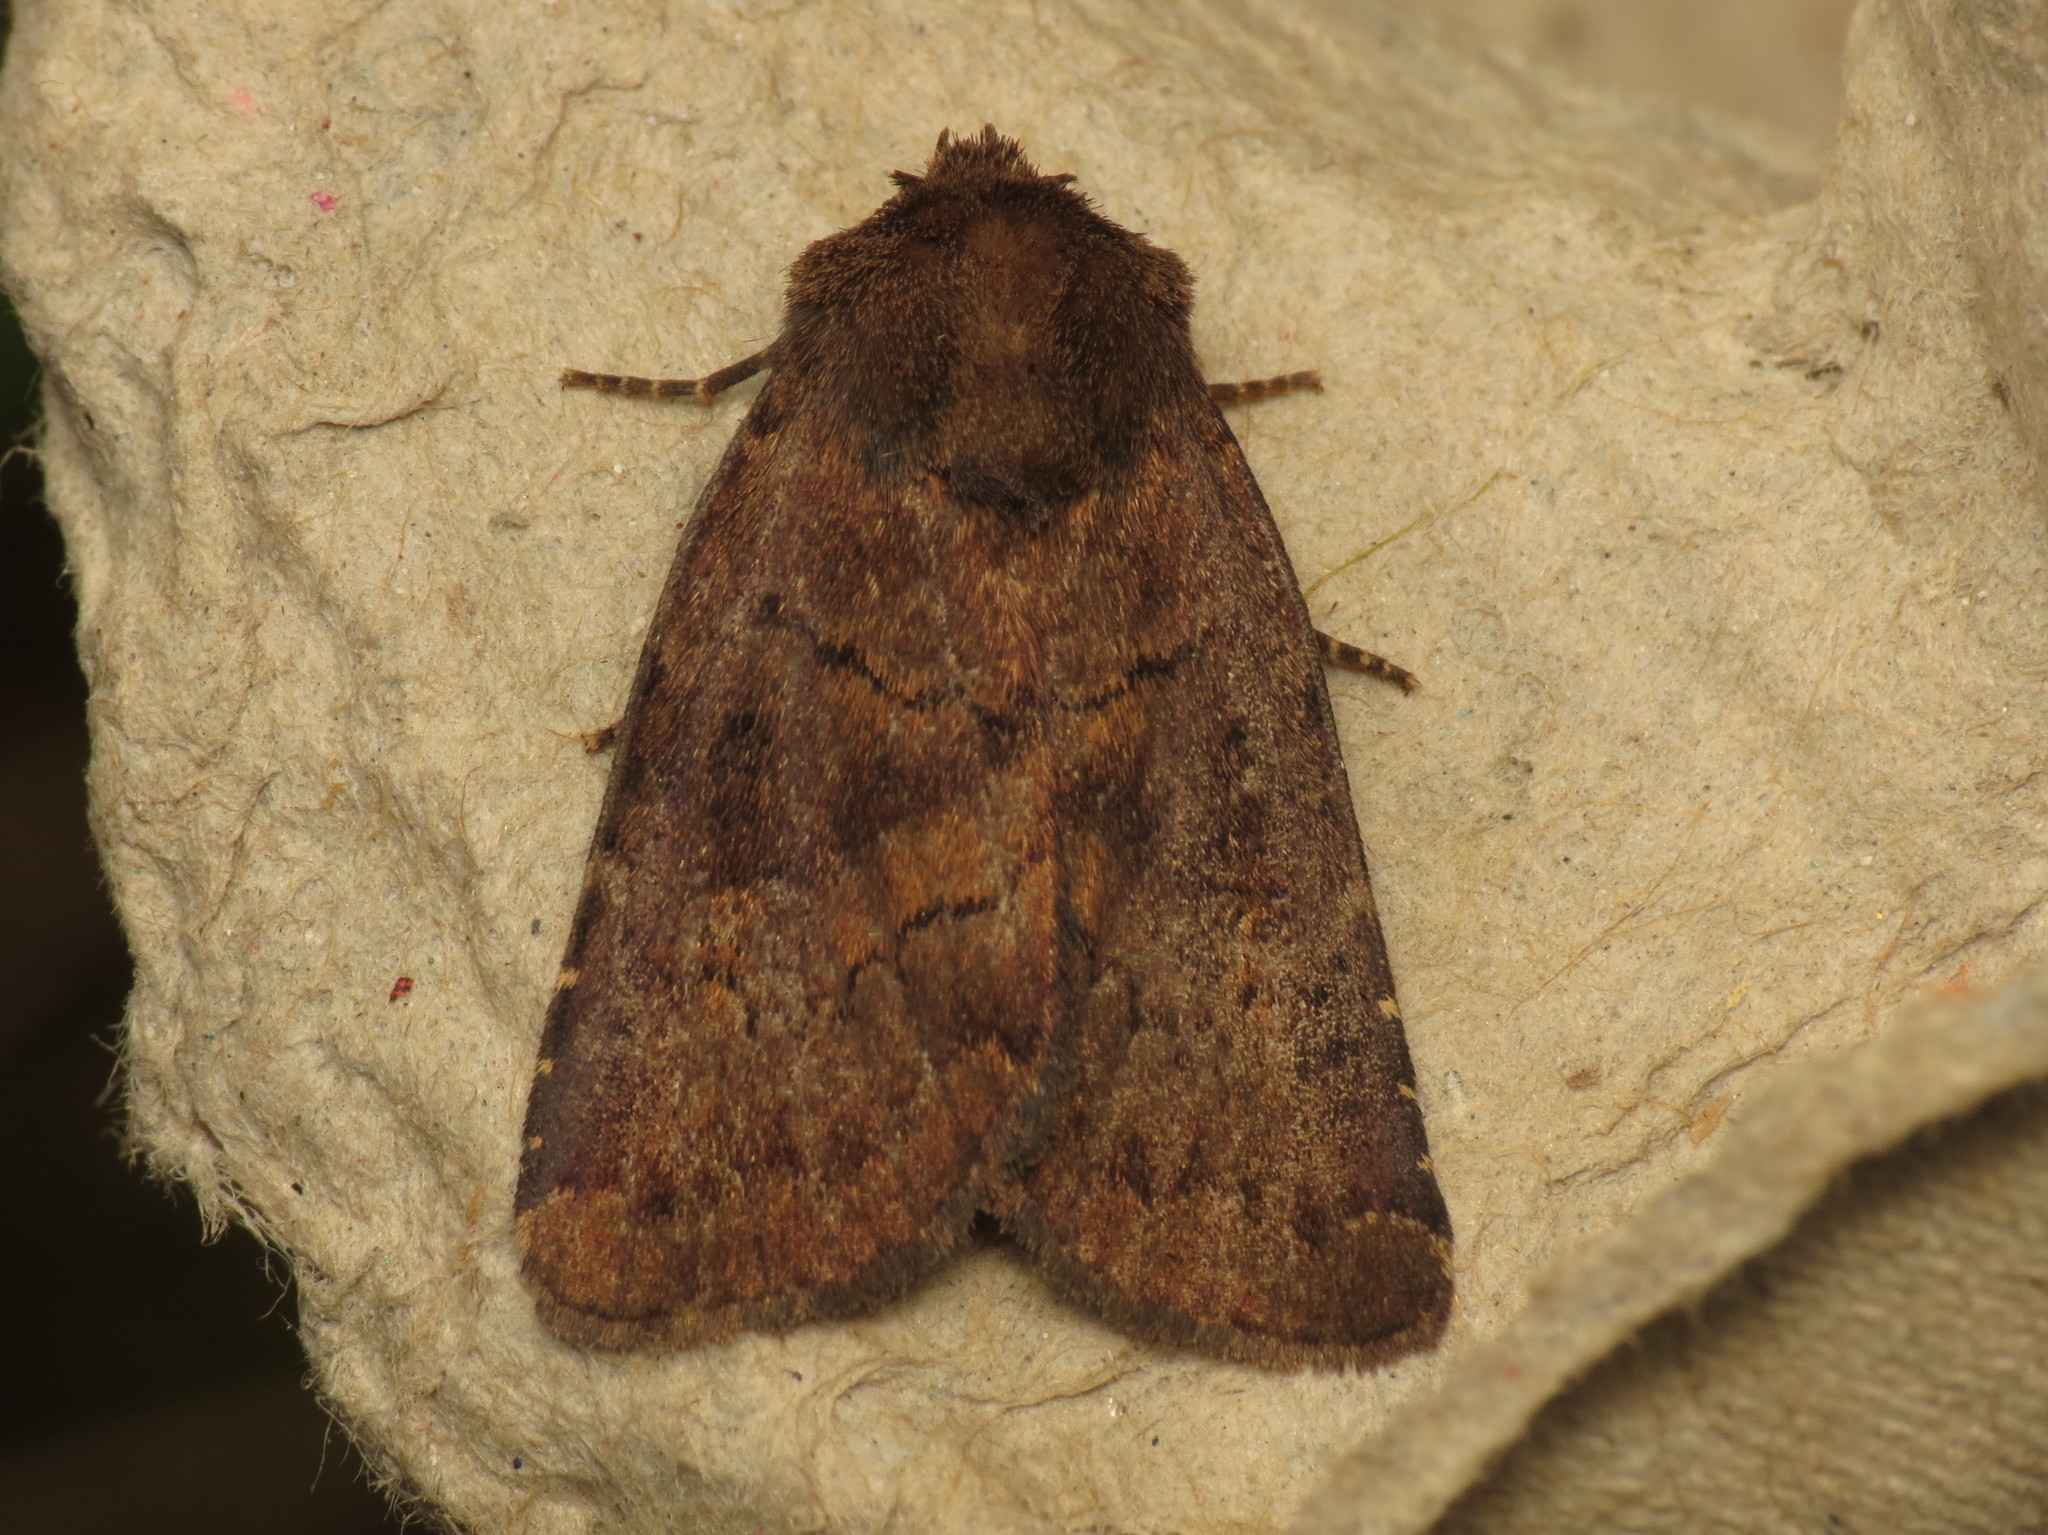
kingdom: Animalia
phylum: Arthropoda
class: Insecta
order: Lepidoptera
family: Noctuidae
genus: Charanyca
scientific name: Charanyca ferruginea
